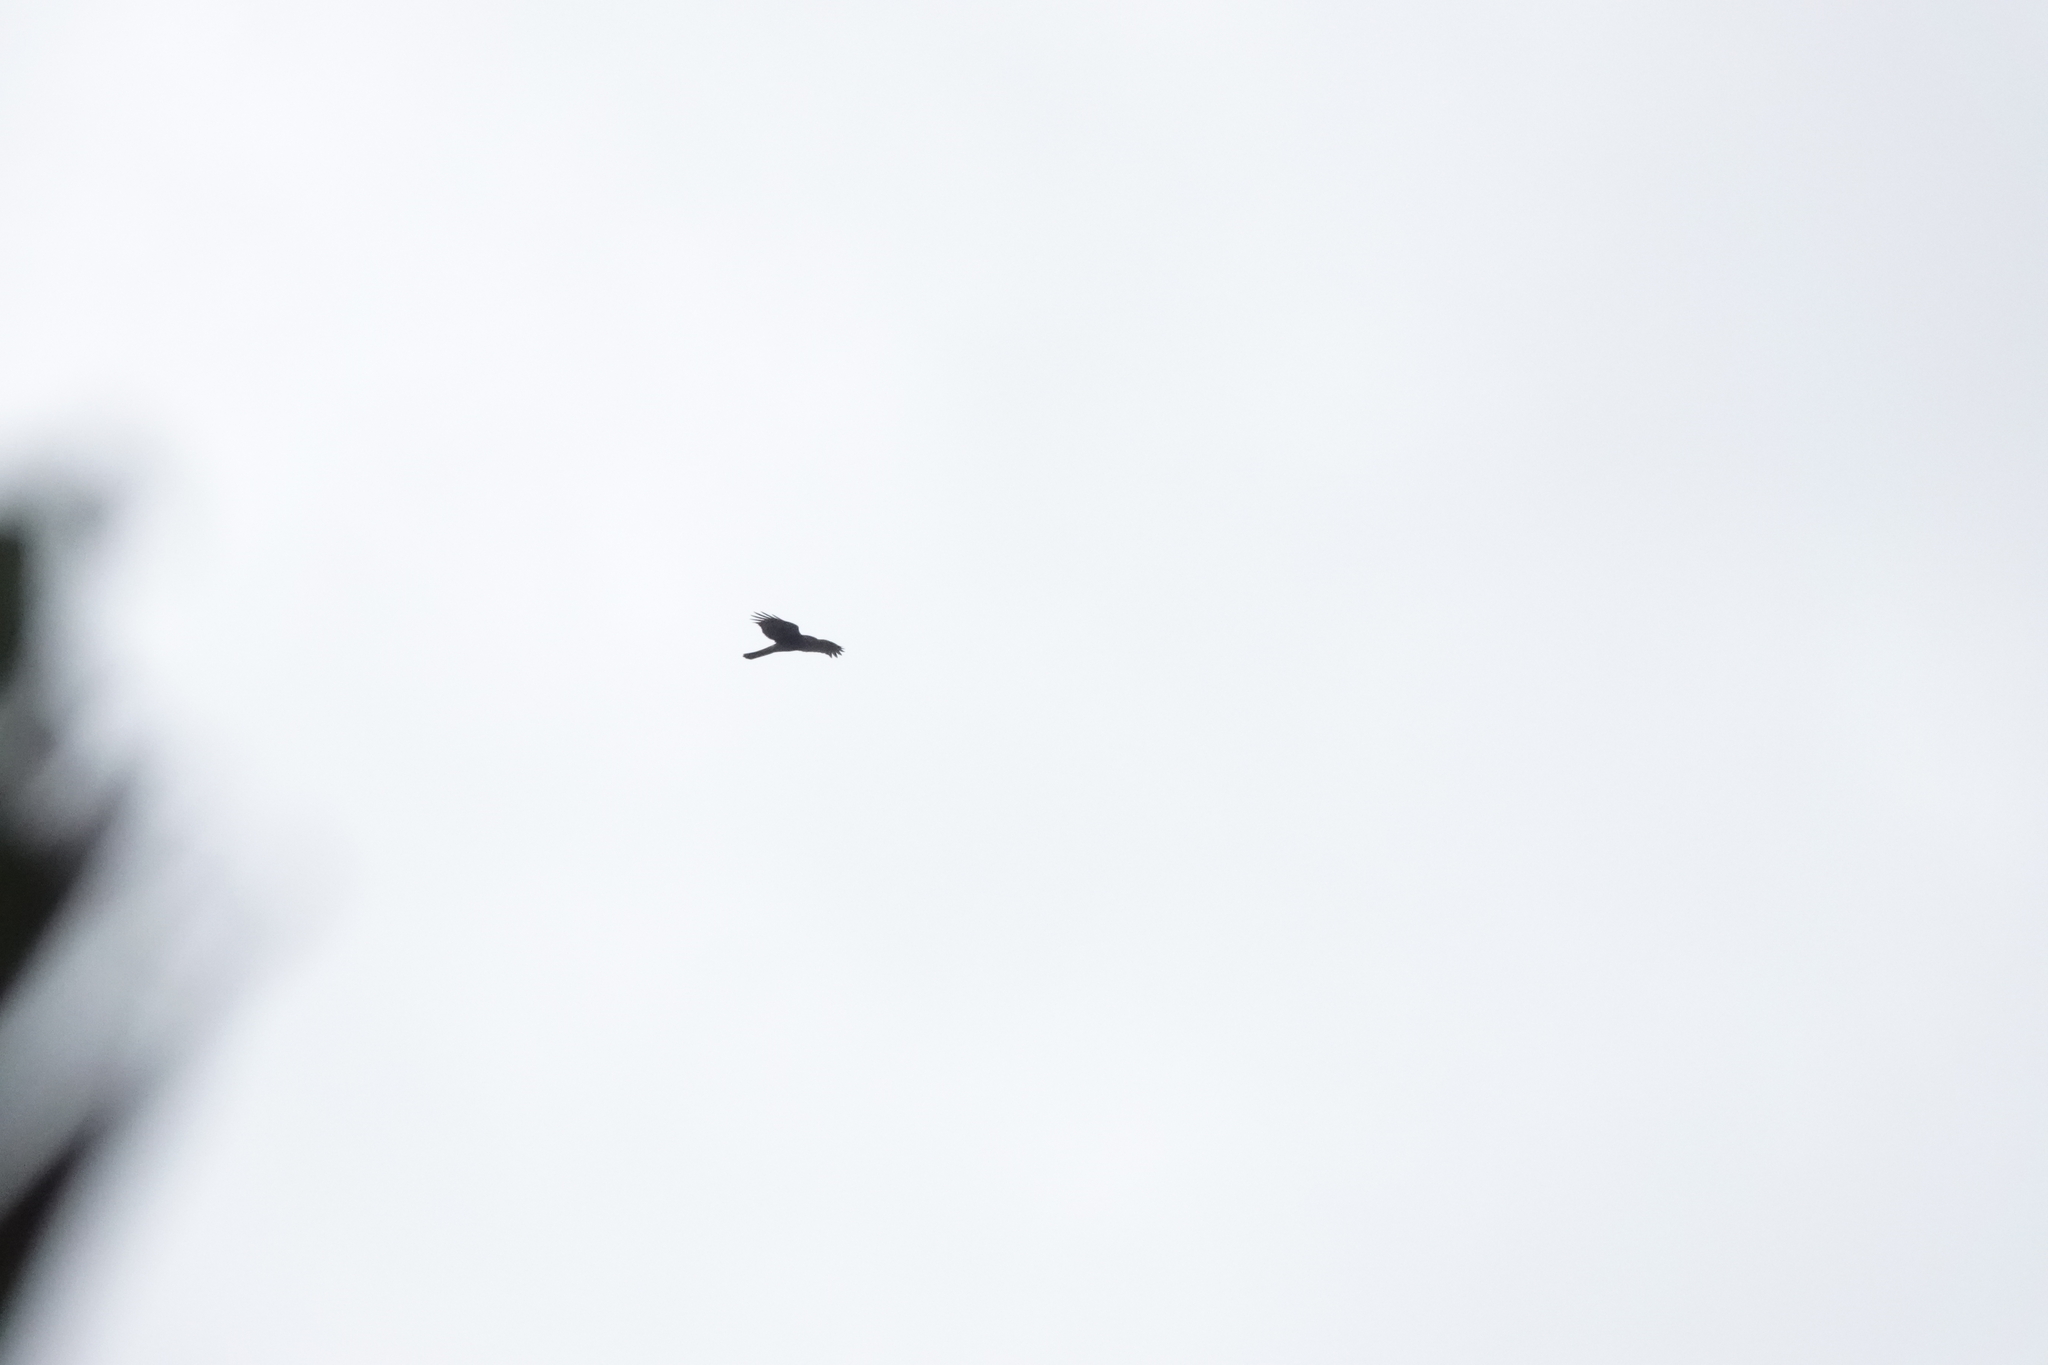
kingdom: Animalia
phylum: Chordata
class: Aves
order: Accipitriformes
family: Accipitridae
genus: Accipiter
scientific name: Accipiter nisus
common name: Eurasian sparrowhawk
